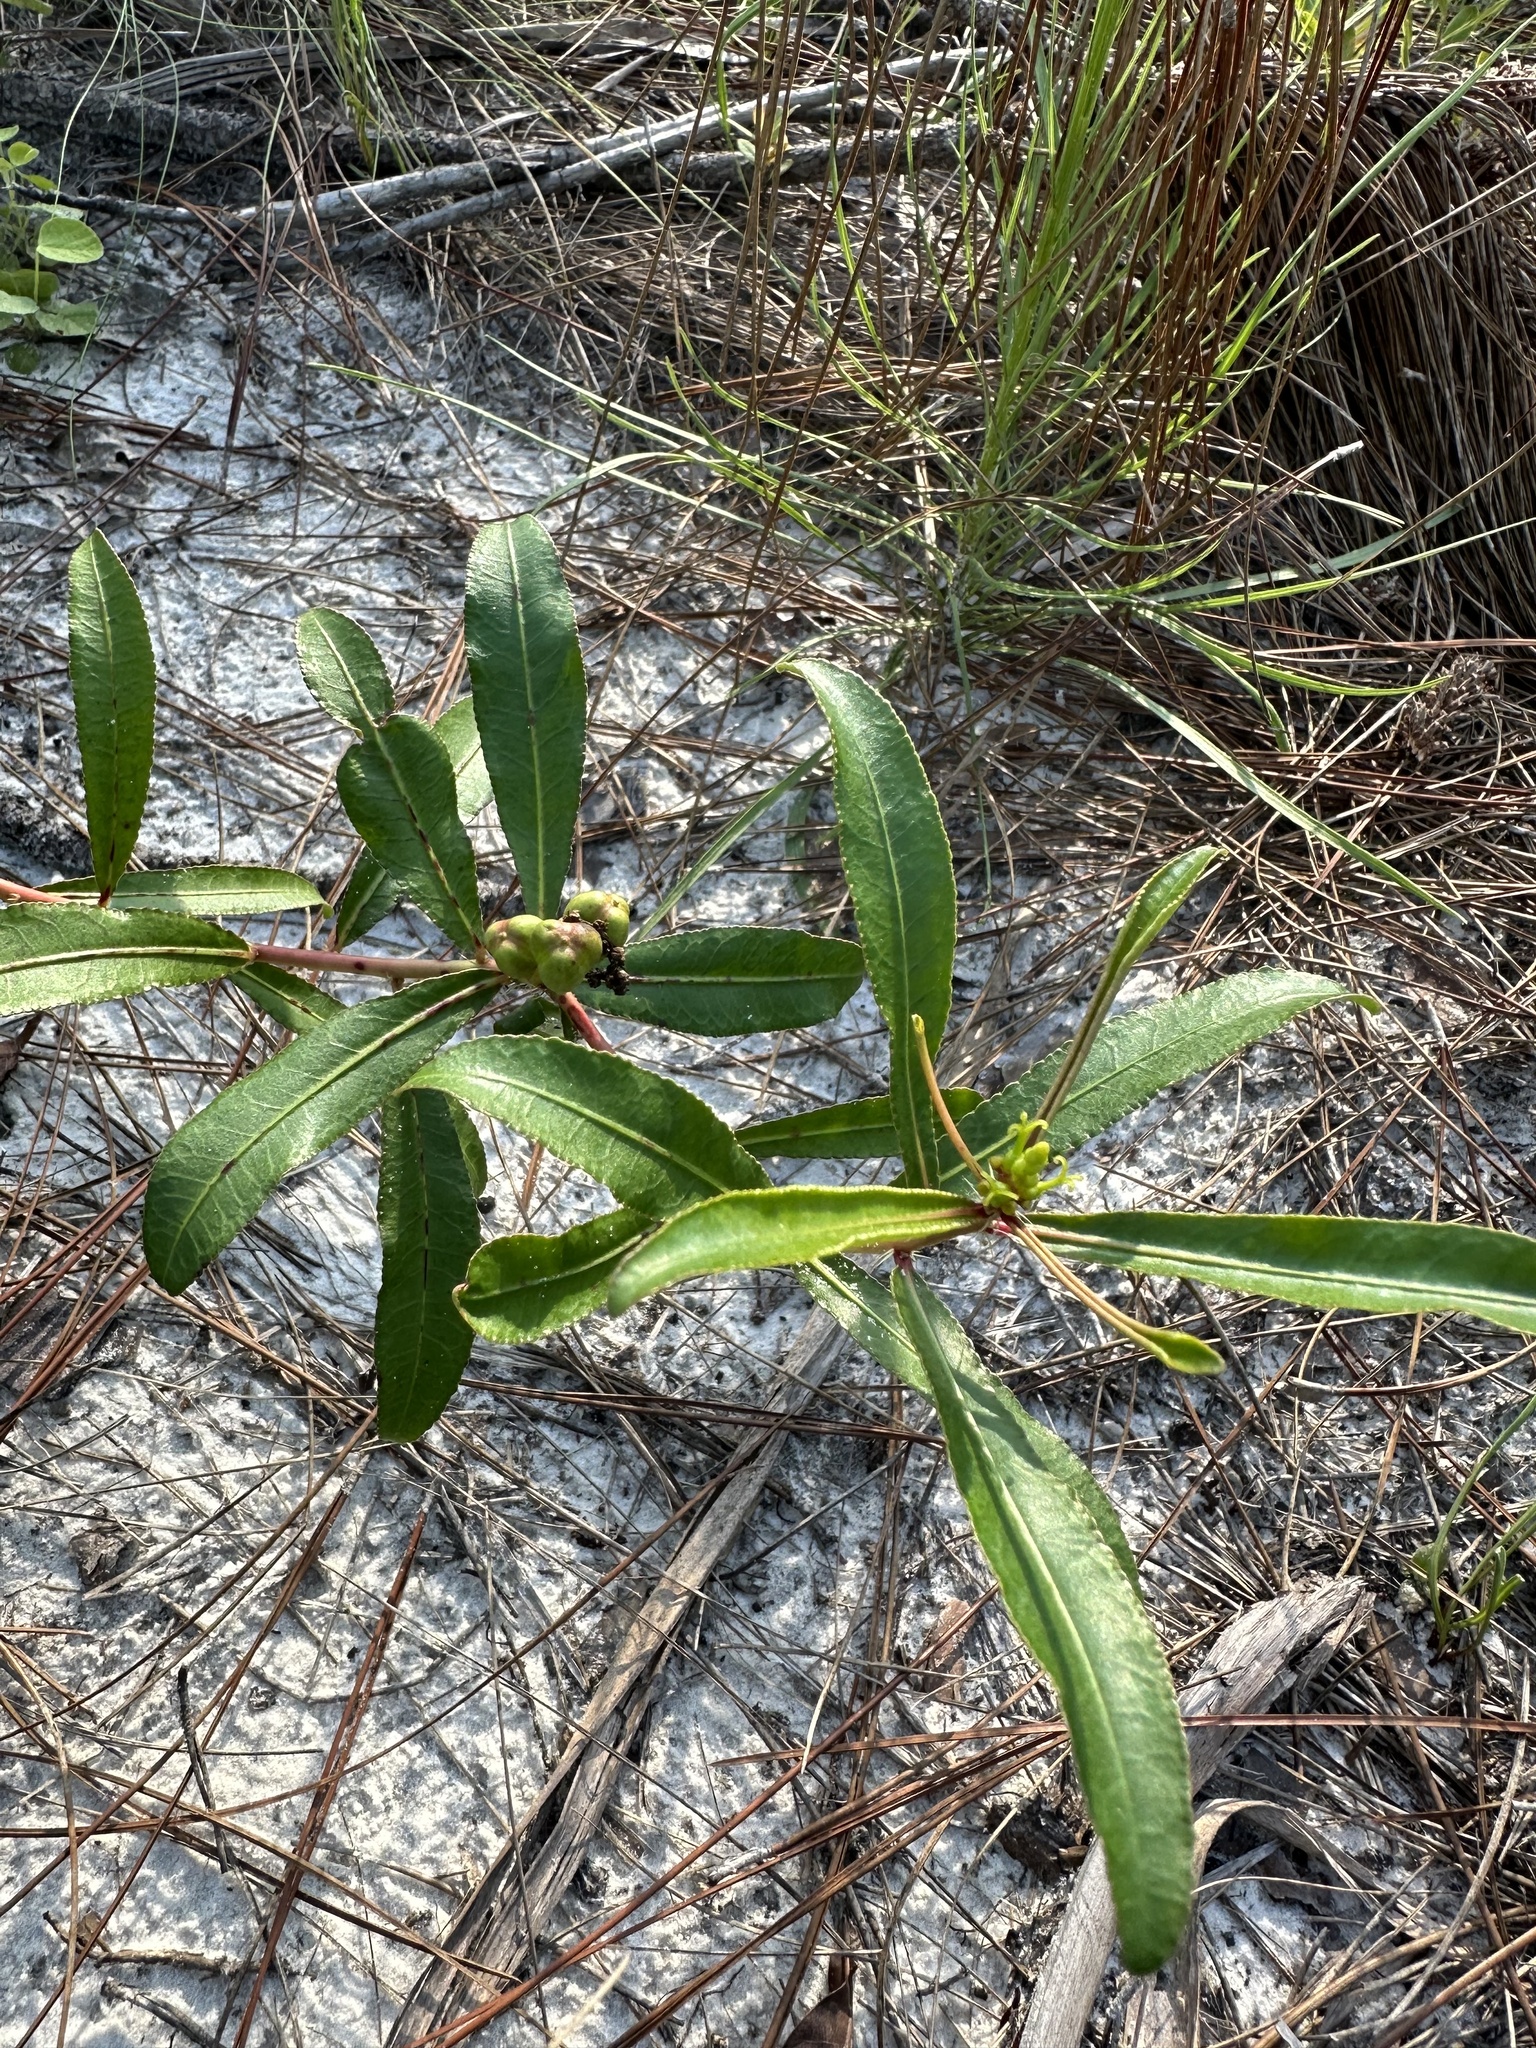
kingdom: Plantae
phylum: Tracheophyta
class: Magnoliopsida
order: Malpighiales
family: Euphorbiaceae
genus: Stillingia
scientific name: Stillingia sylvatica
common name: Queen's-delight
